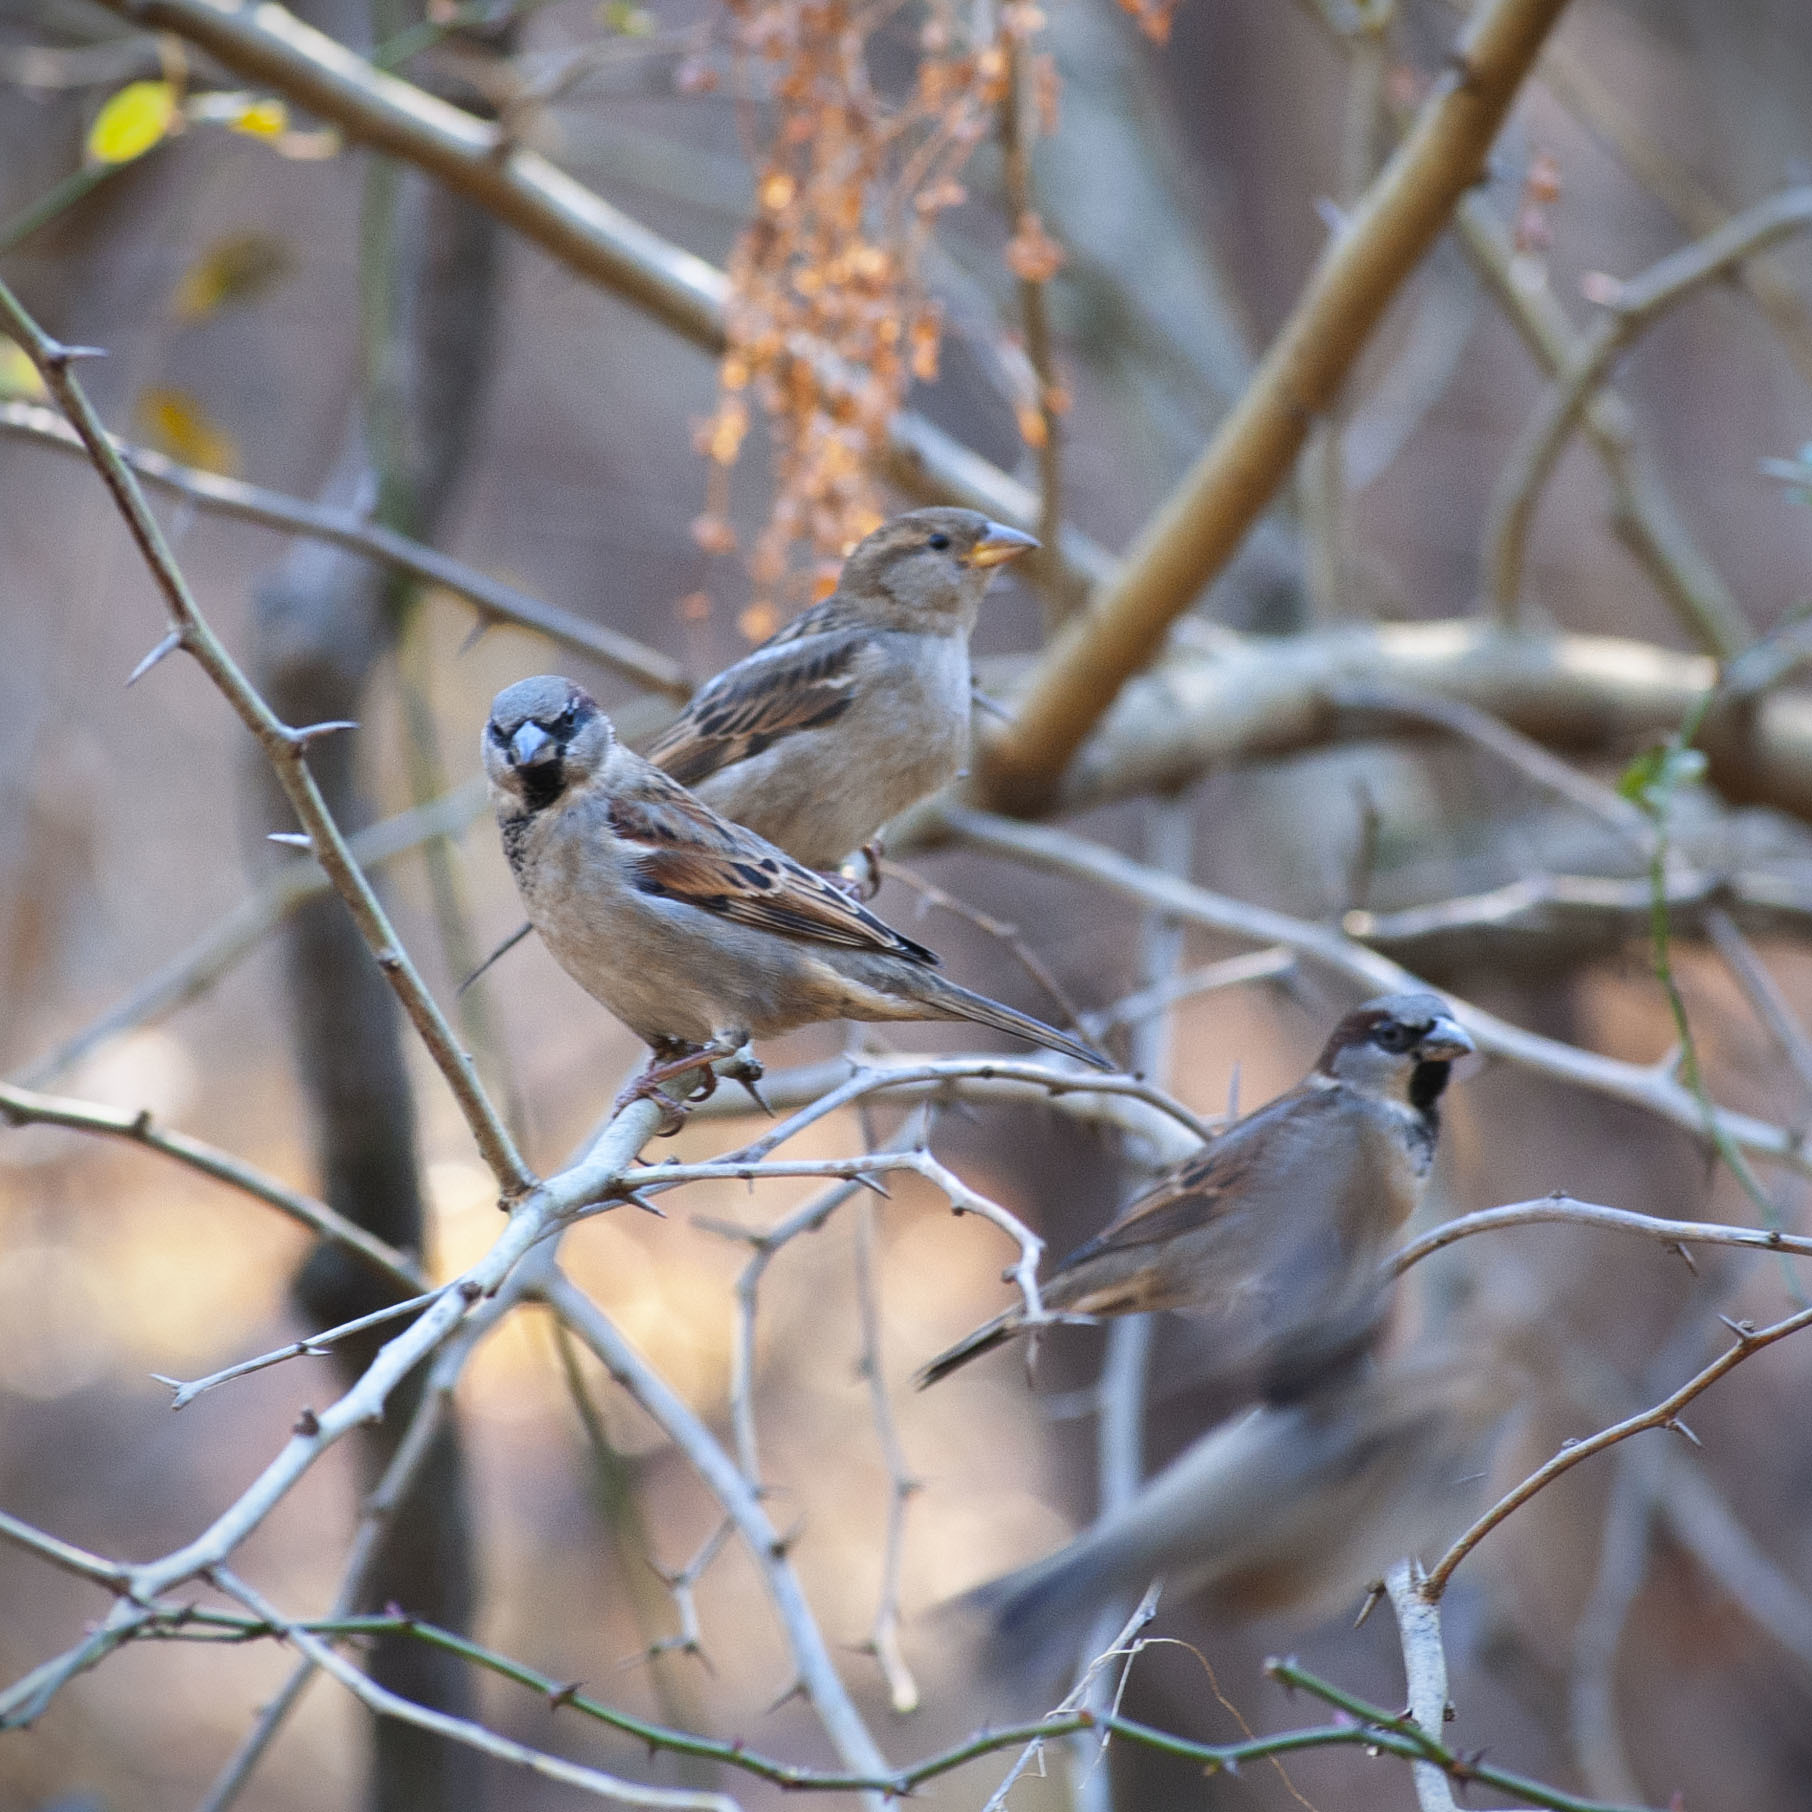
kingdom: Animalia
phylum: Chordata
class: Aves
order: Passeriformes
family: Passeridae
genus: Passer
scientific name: Passer domesticus
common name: House sparrow
